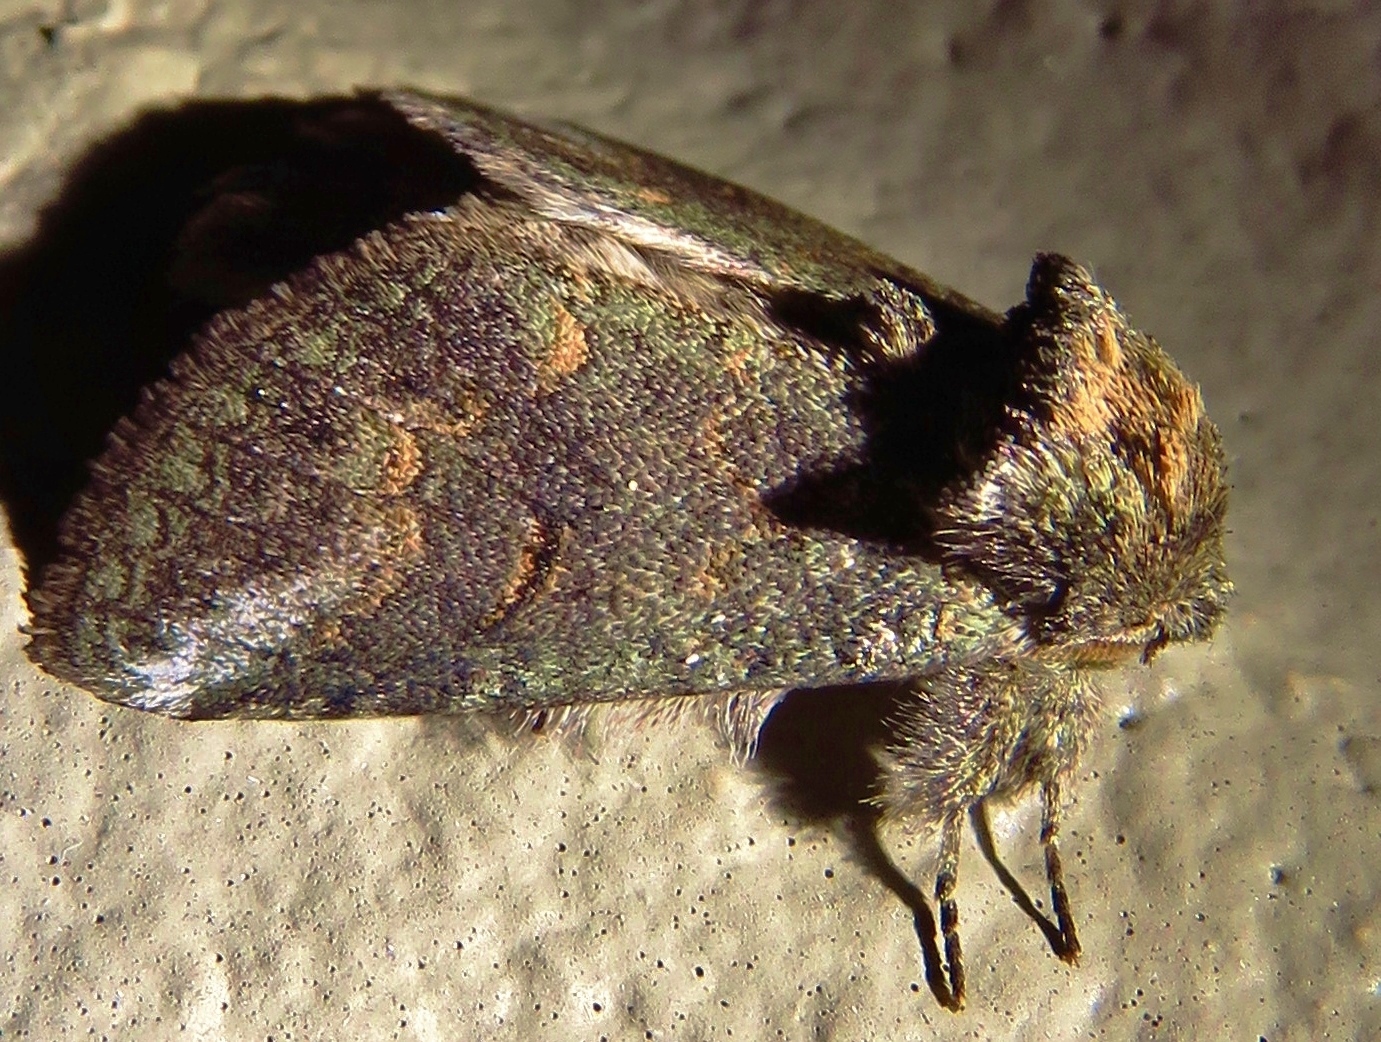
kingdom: Animalia
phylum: Arthropoda
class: Insecta
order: Lepidoptera
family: Notodontidae
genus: Rifargia
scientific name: Rifargia
